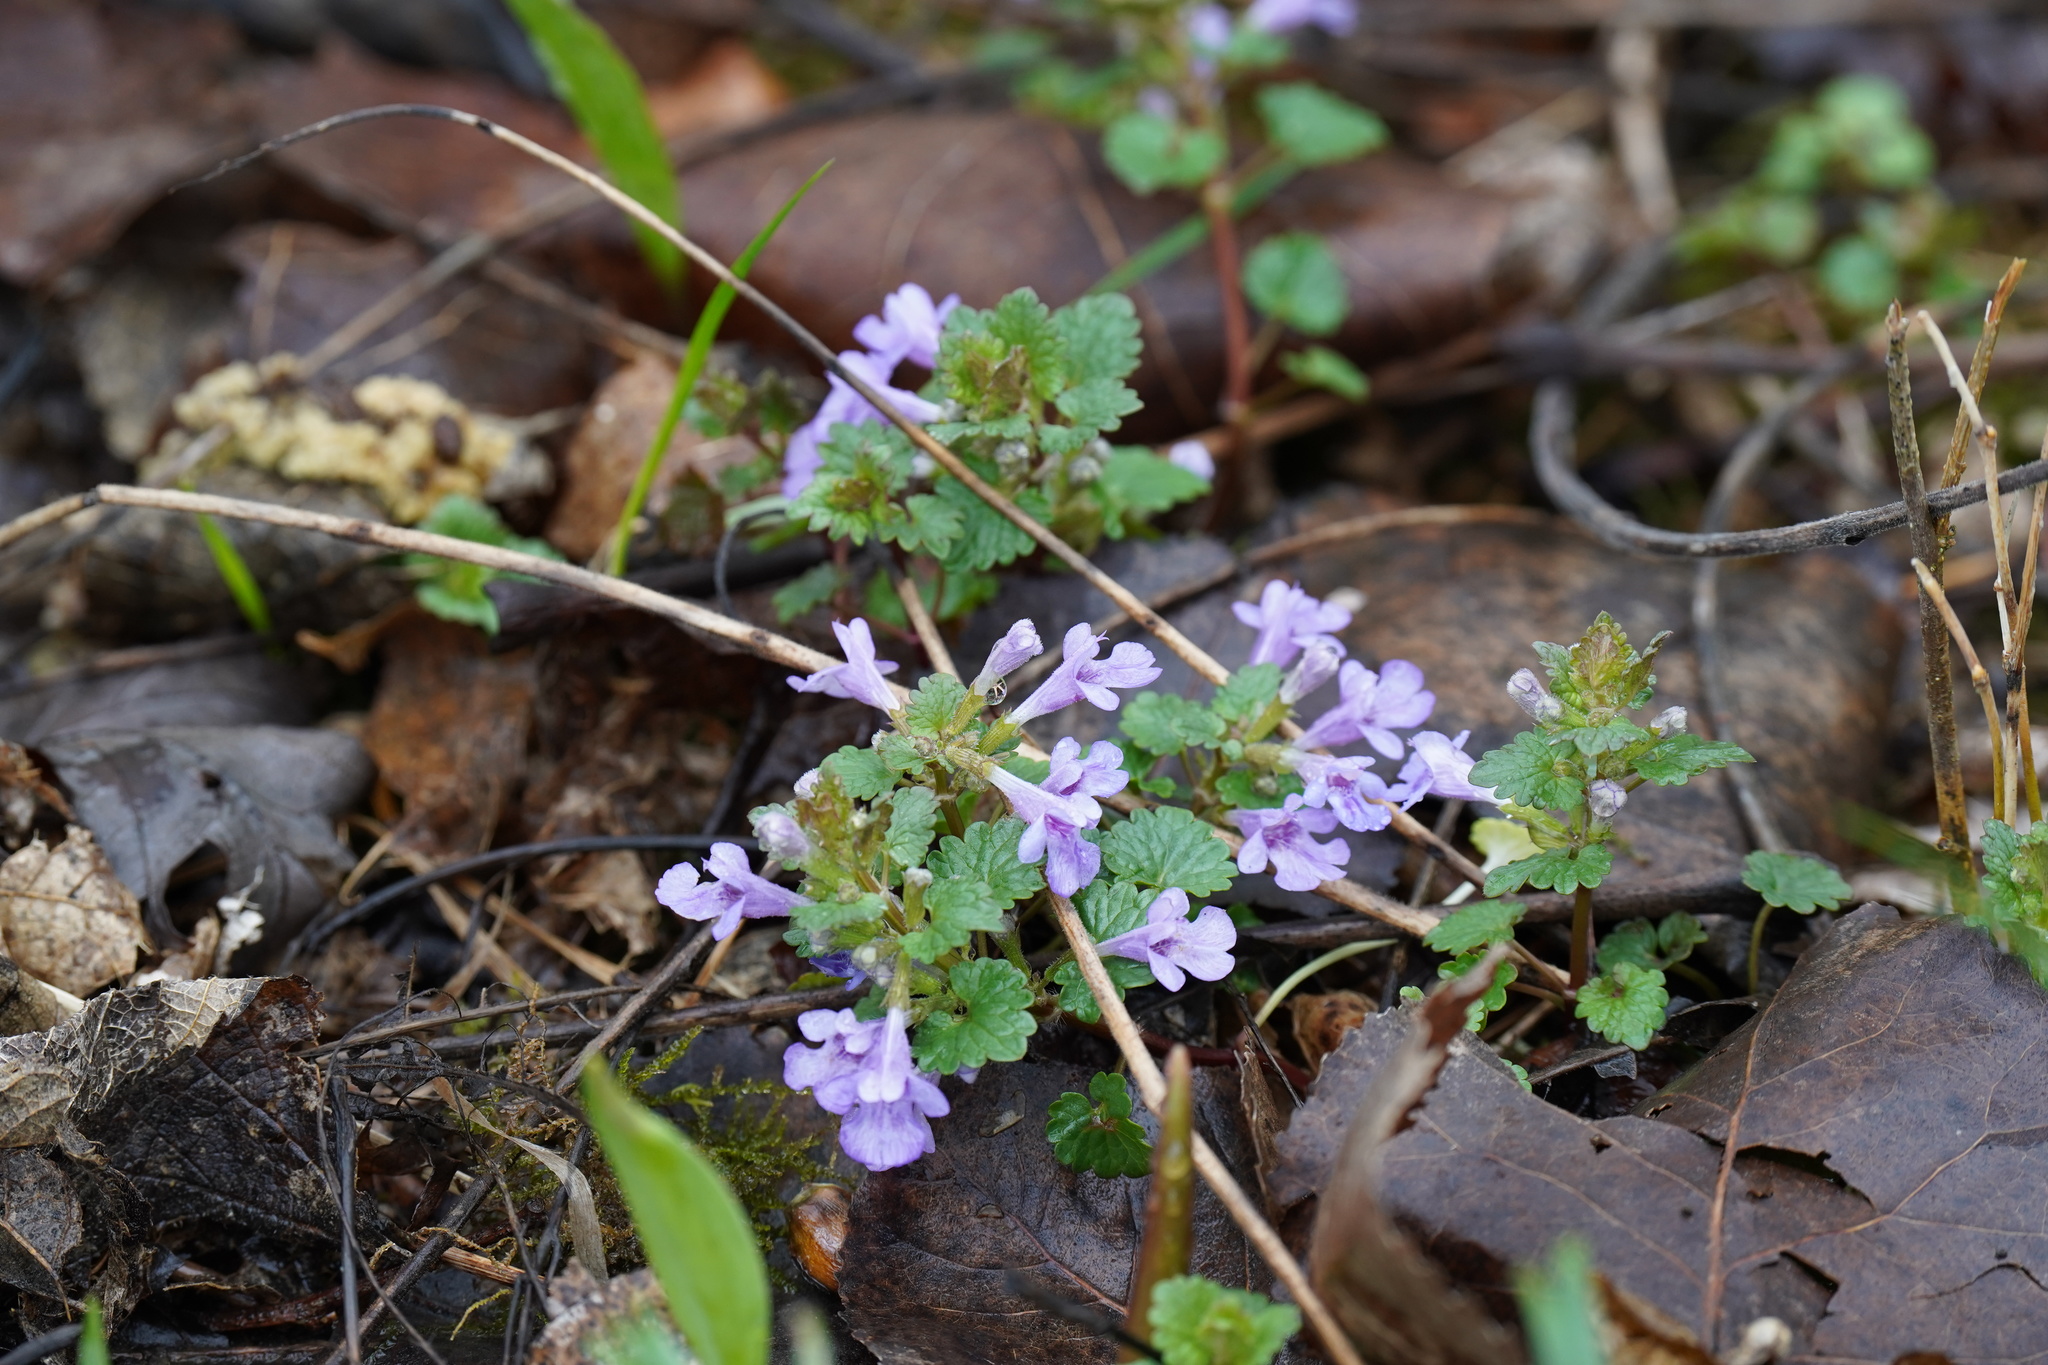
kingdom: Plantae
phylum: Tracheophyta
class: Magnoliopsida
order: Lamiales
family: Lamiaceae
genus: Glechoma
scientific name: Glechoma hederacea
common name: Ground ivy
